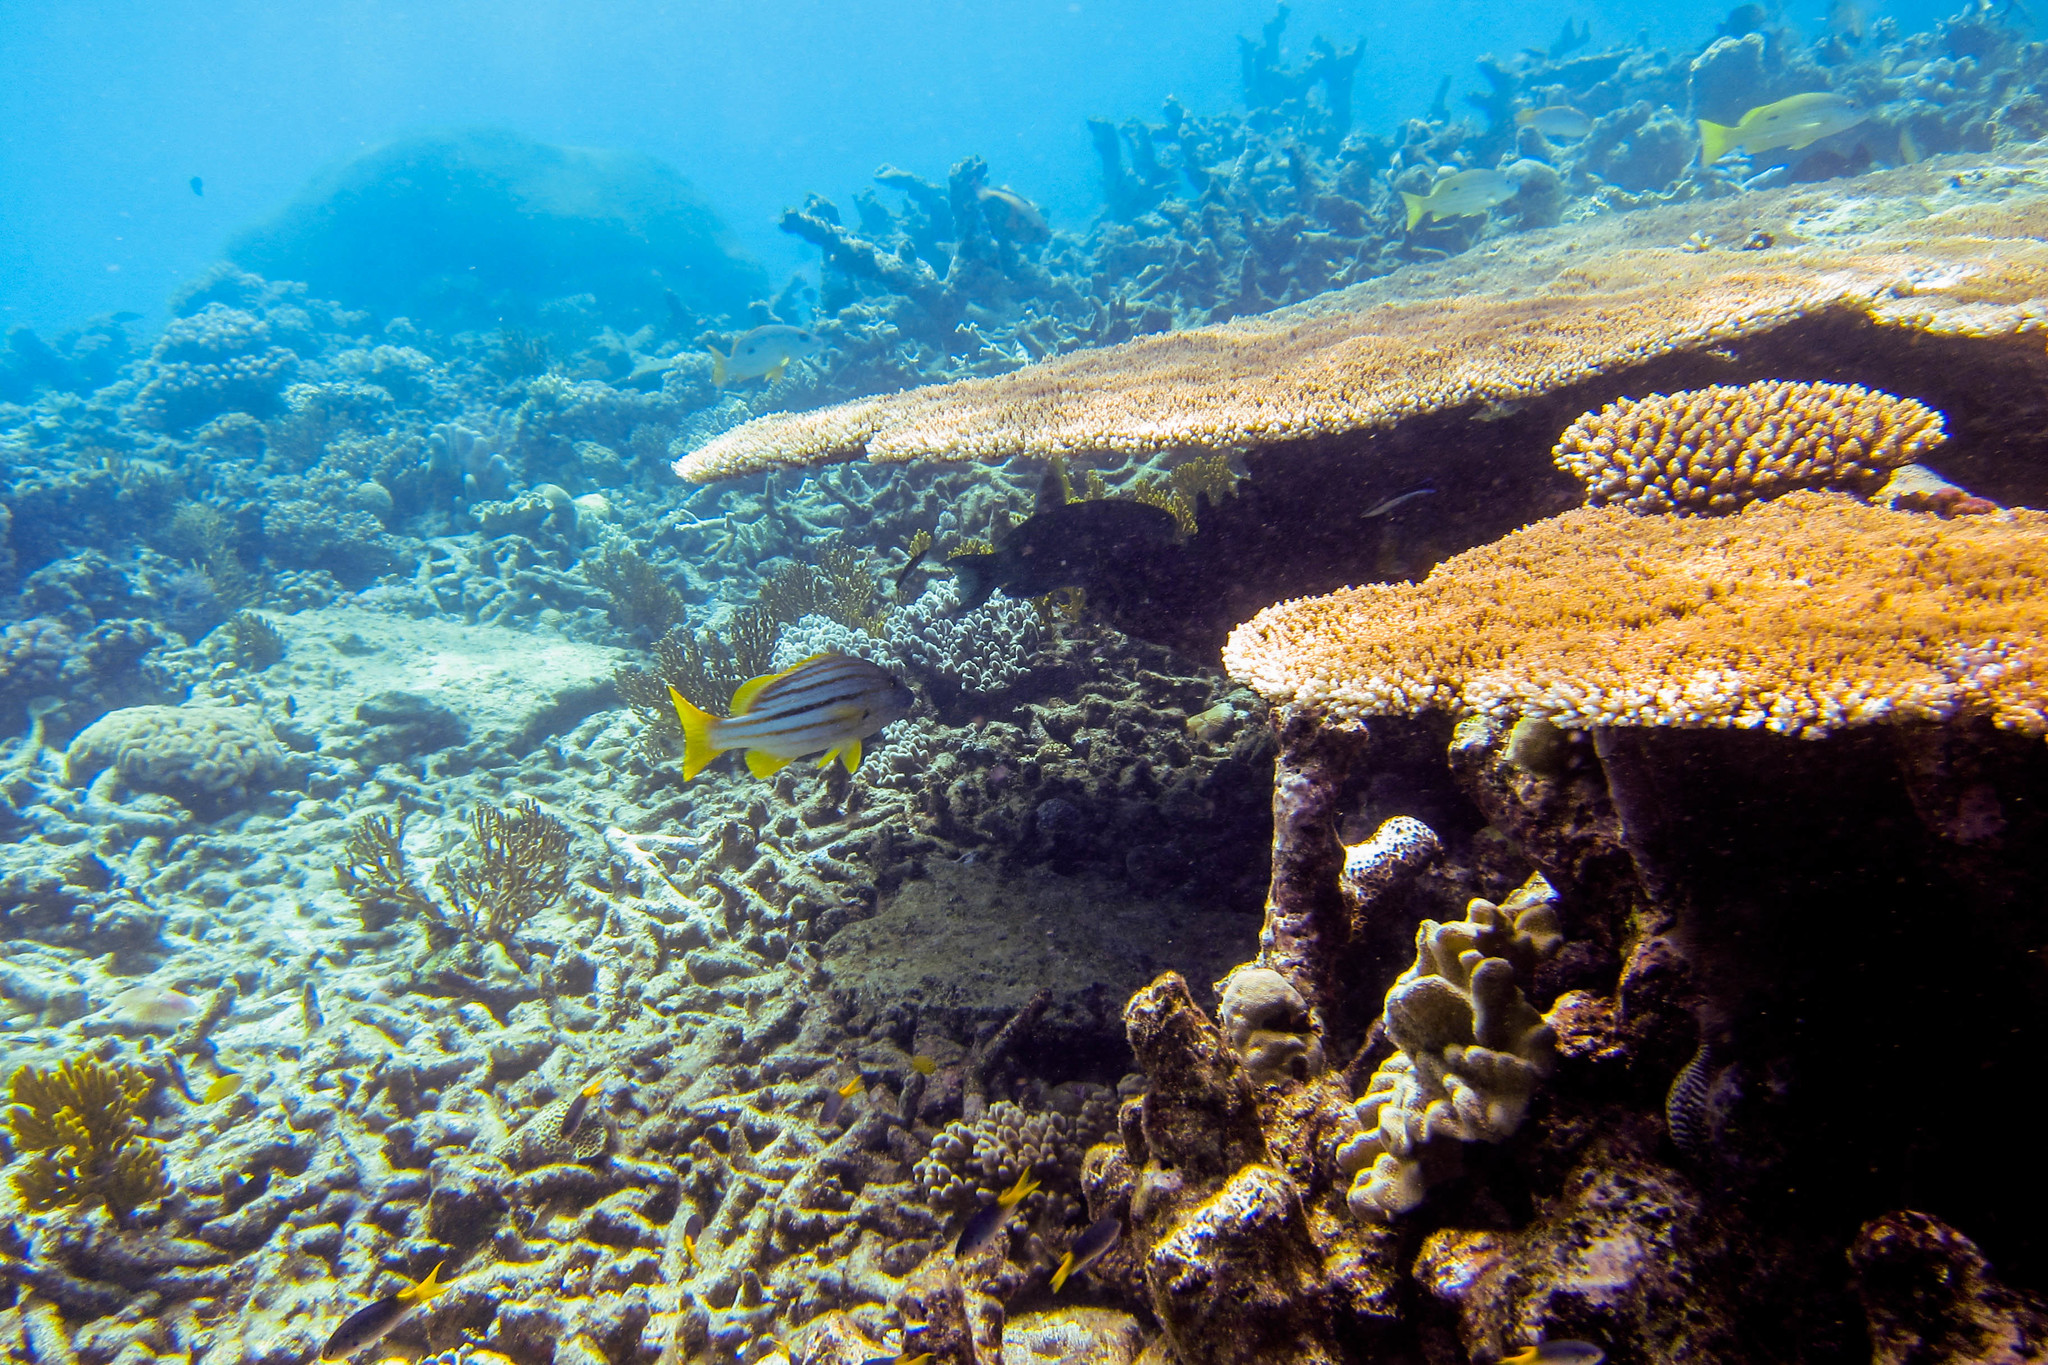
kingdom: Animalia
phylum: Chordata
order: Perciformes
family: Lutjanidae
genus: Lutjanus
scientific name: Lutjanus carponotatus
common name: Spanish flag
